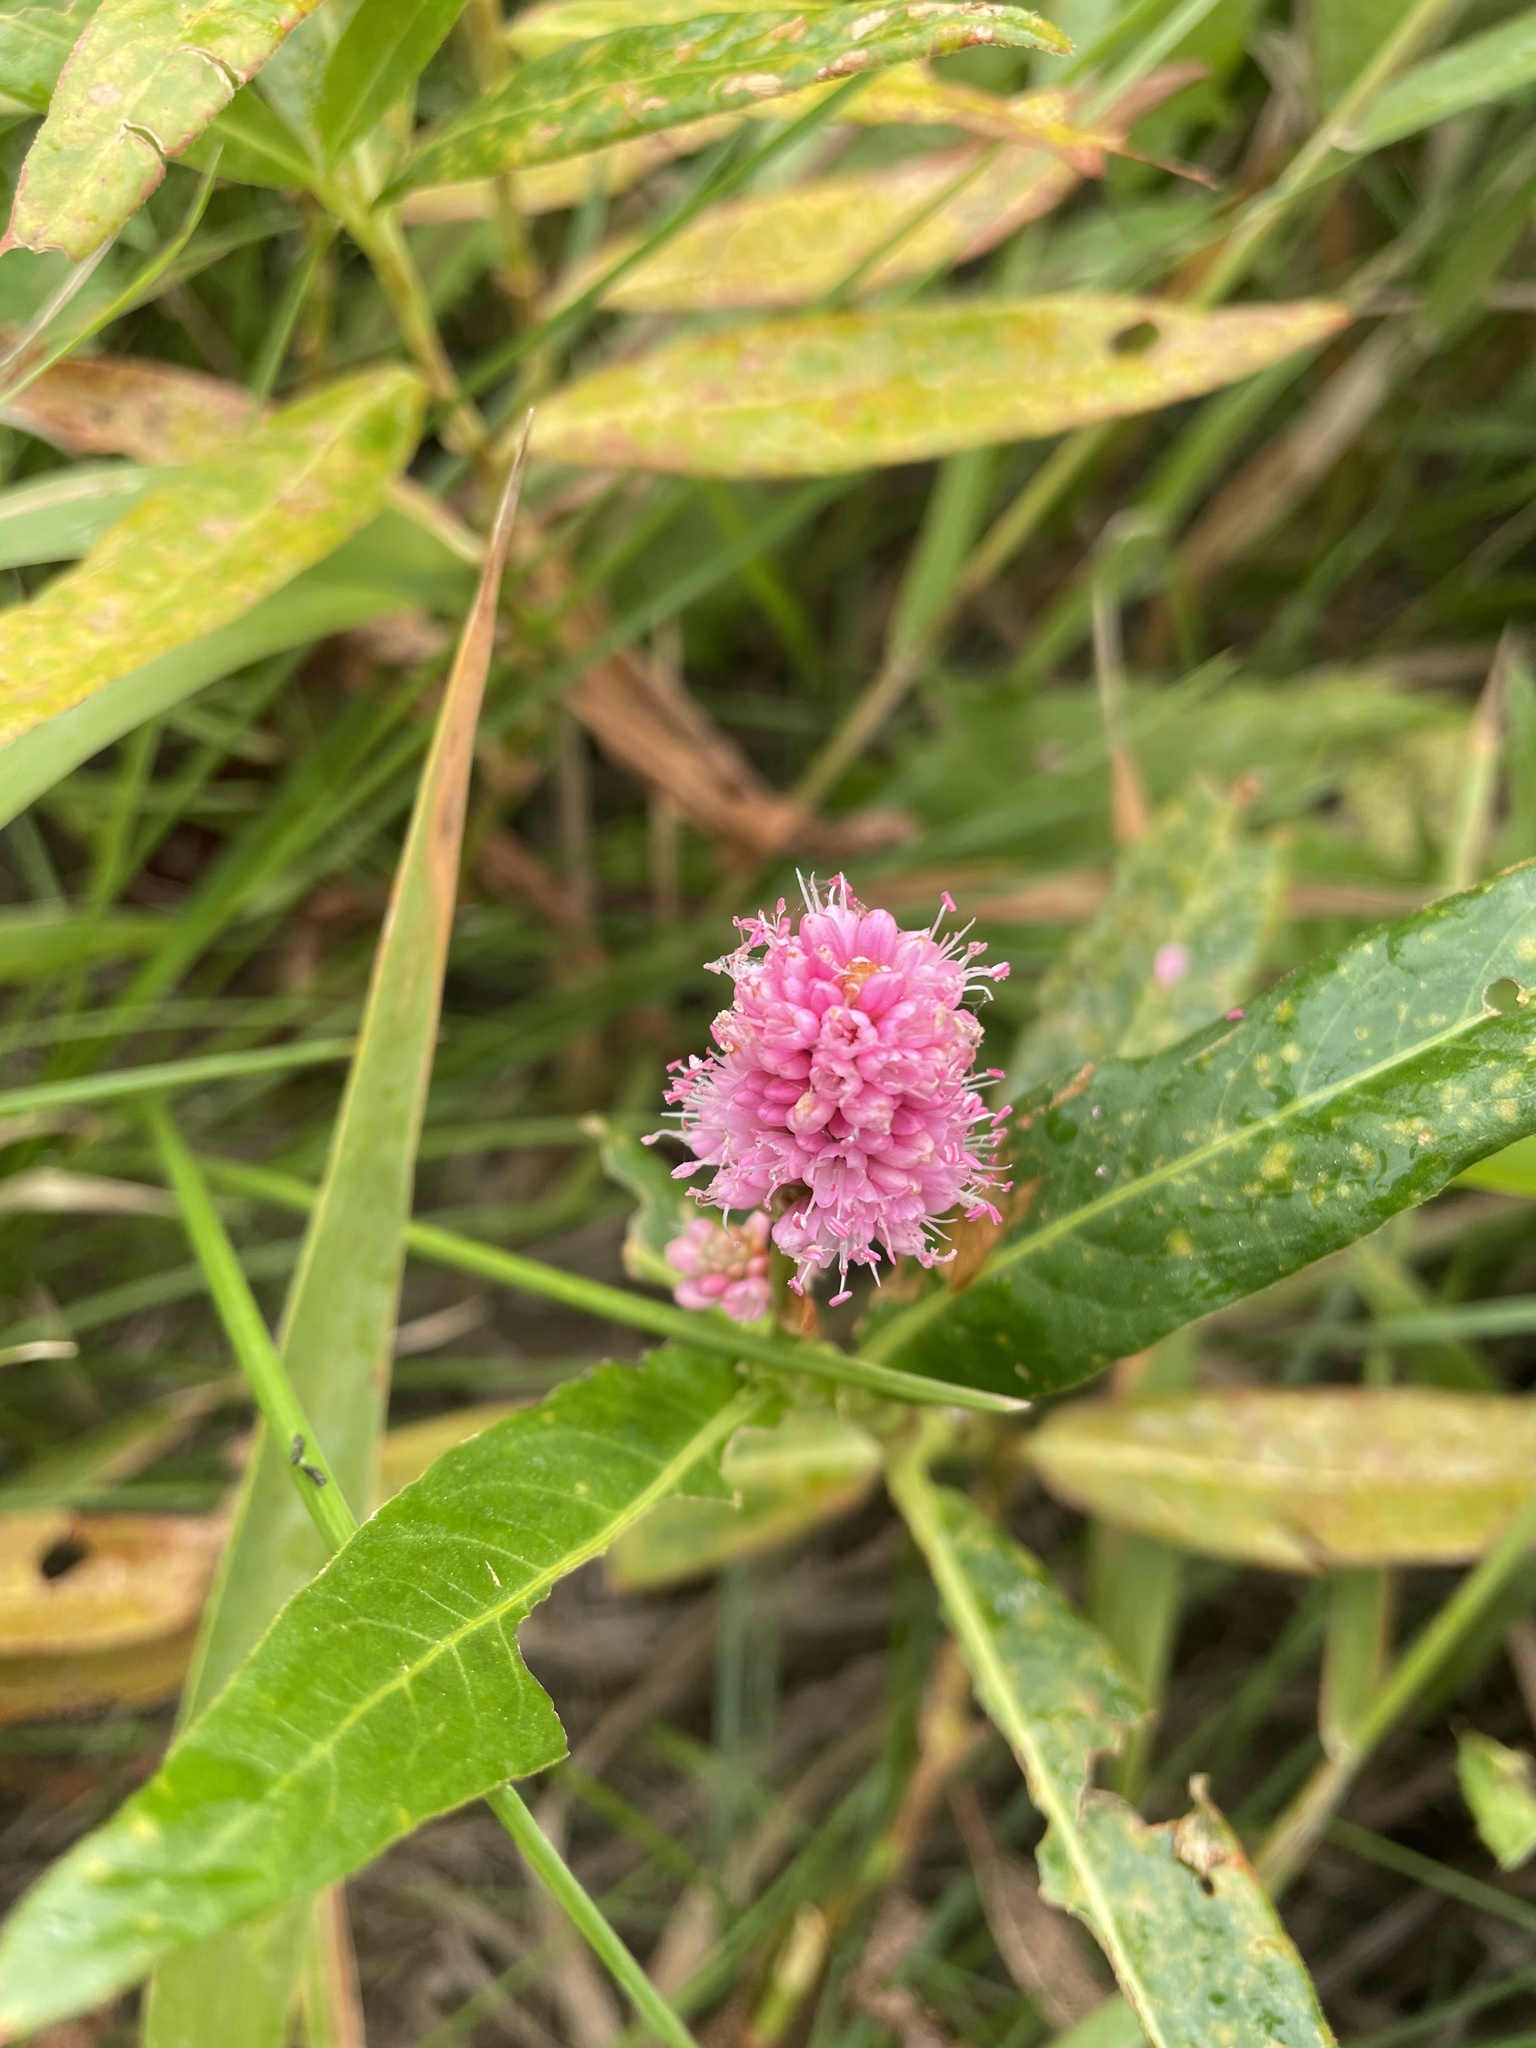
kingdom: Plantae
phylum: Tracheophyta
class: Magnoliopsida
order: Caryophyllales
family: Polygonaceae
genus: Persicaria
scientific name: Persicaria amphibia
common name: Amphibious bistort
